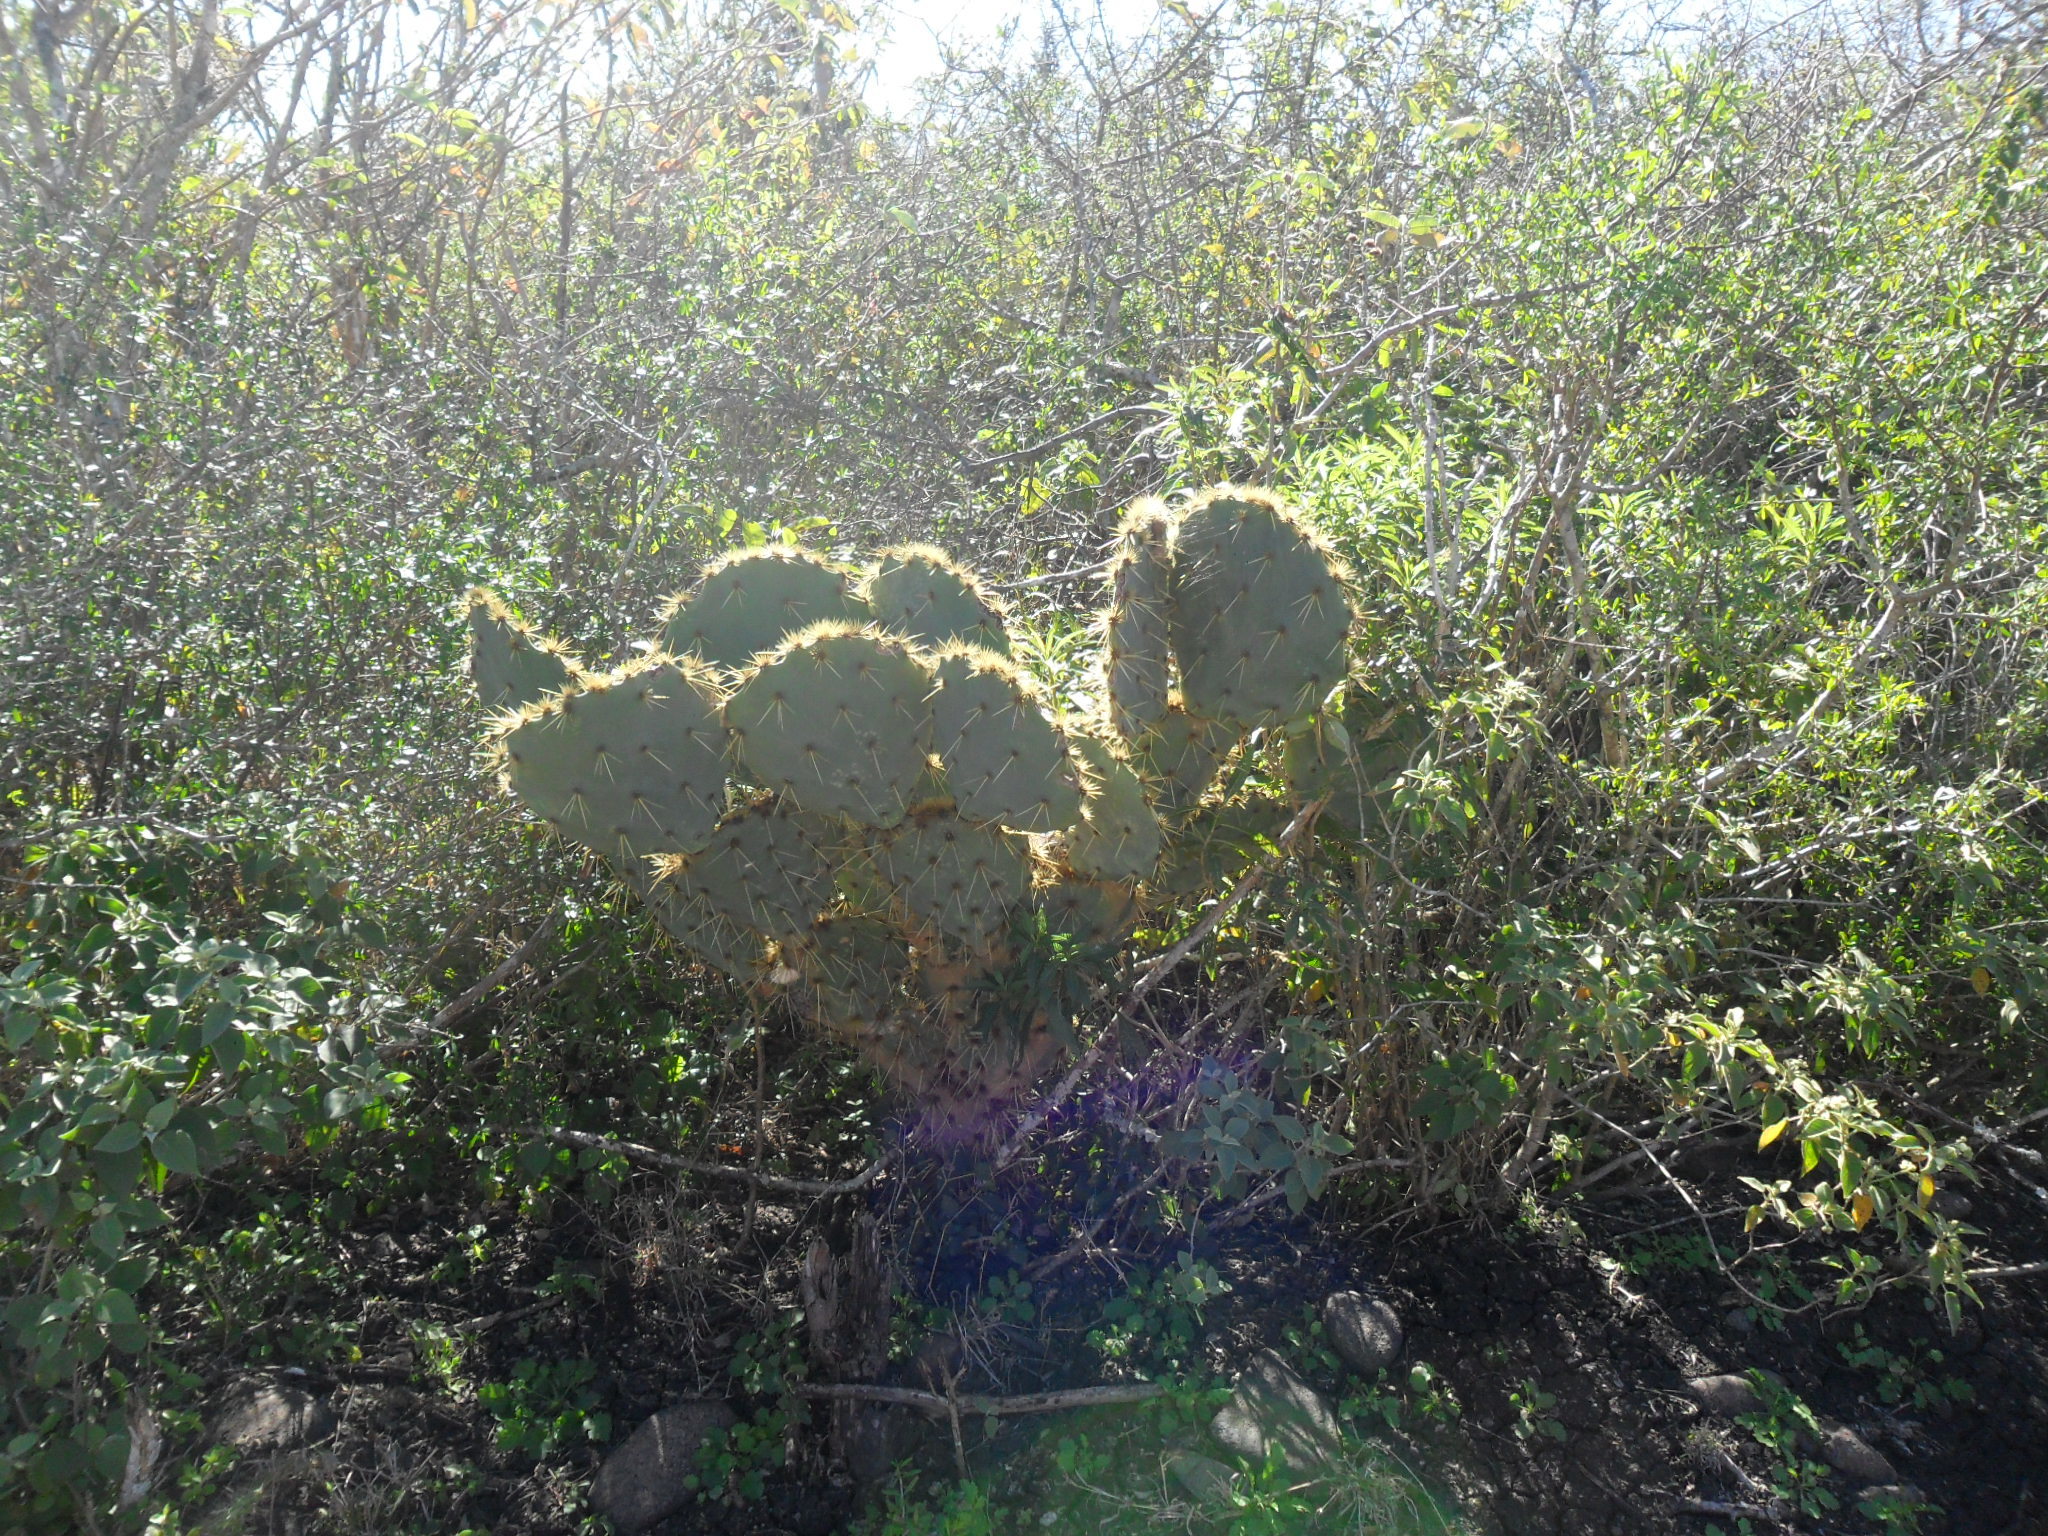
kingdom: Plantae
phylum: Tracheophyta
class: Magnoliopsida
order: Caryophyllales
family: Cactaceae
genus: Opuntia
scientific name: Opuntia engelmannii
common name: Cactus-apple
